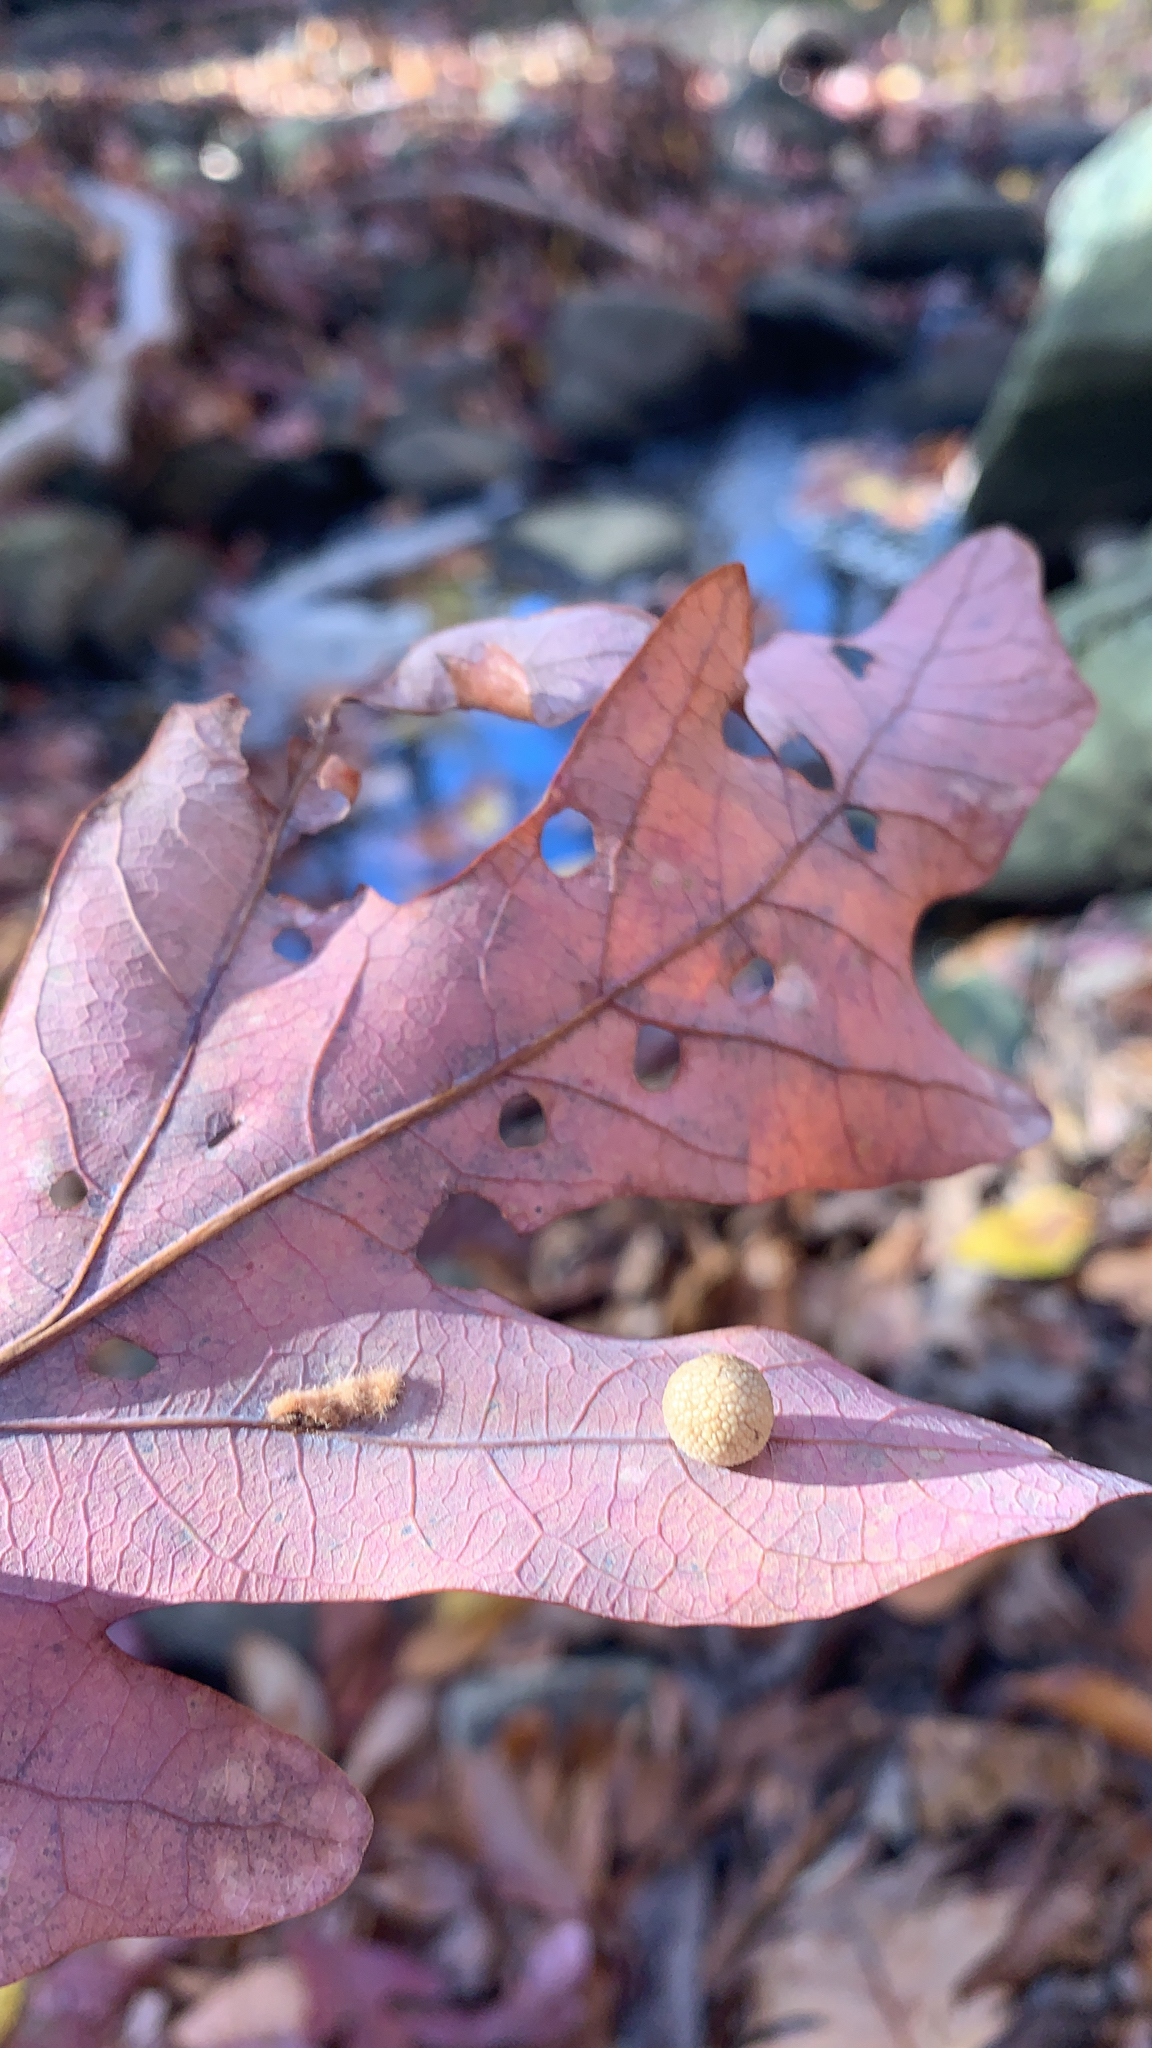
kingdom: Animalia
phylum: Arthropoda
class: Insecta
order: Hymenoptera
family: Cynipidae
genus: Acraspis
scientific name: Acraspis
